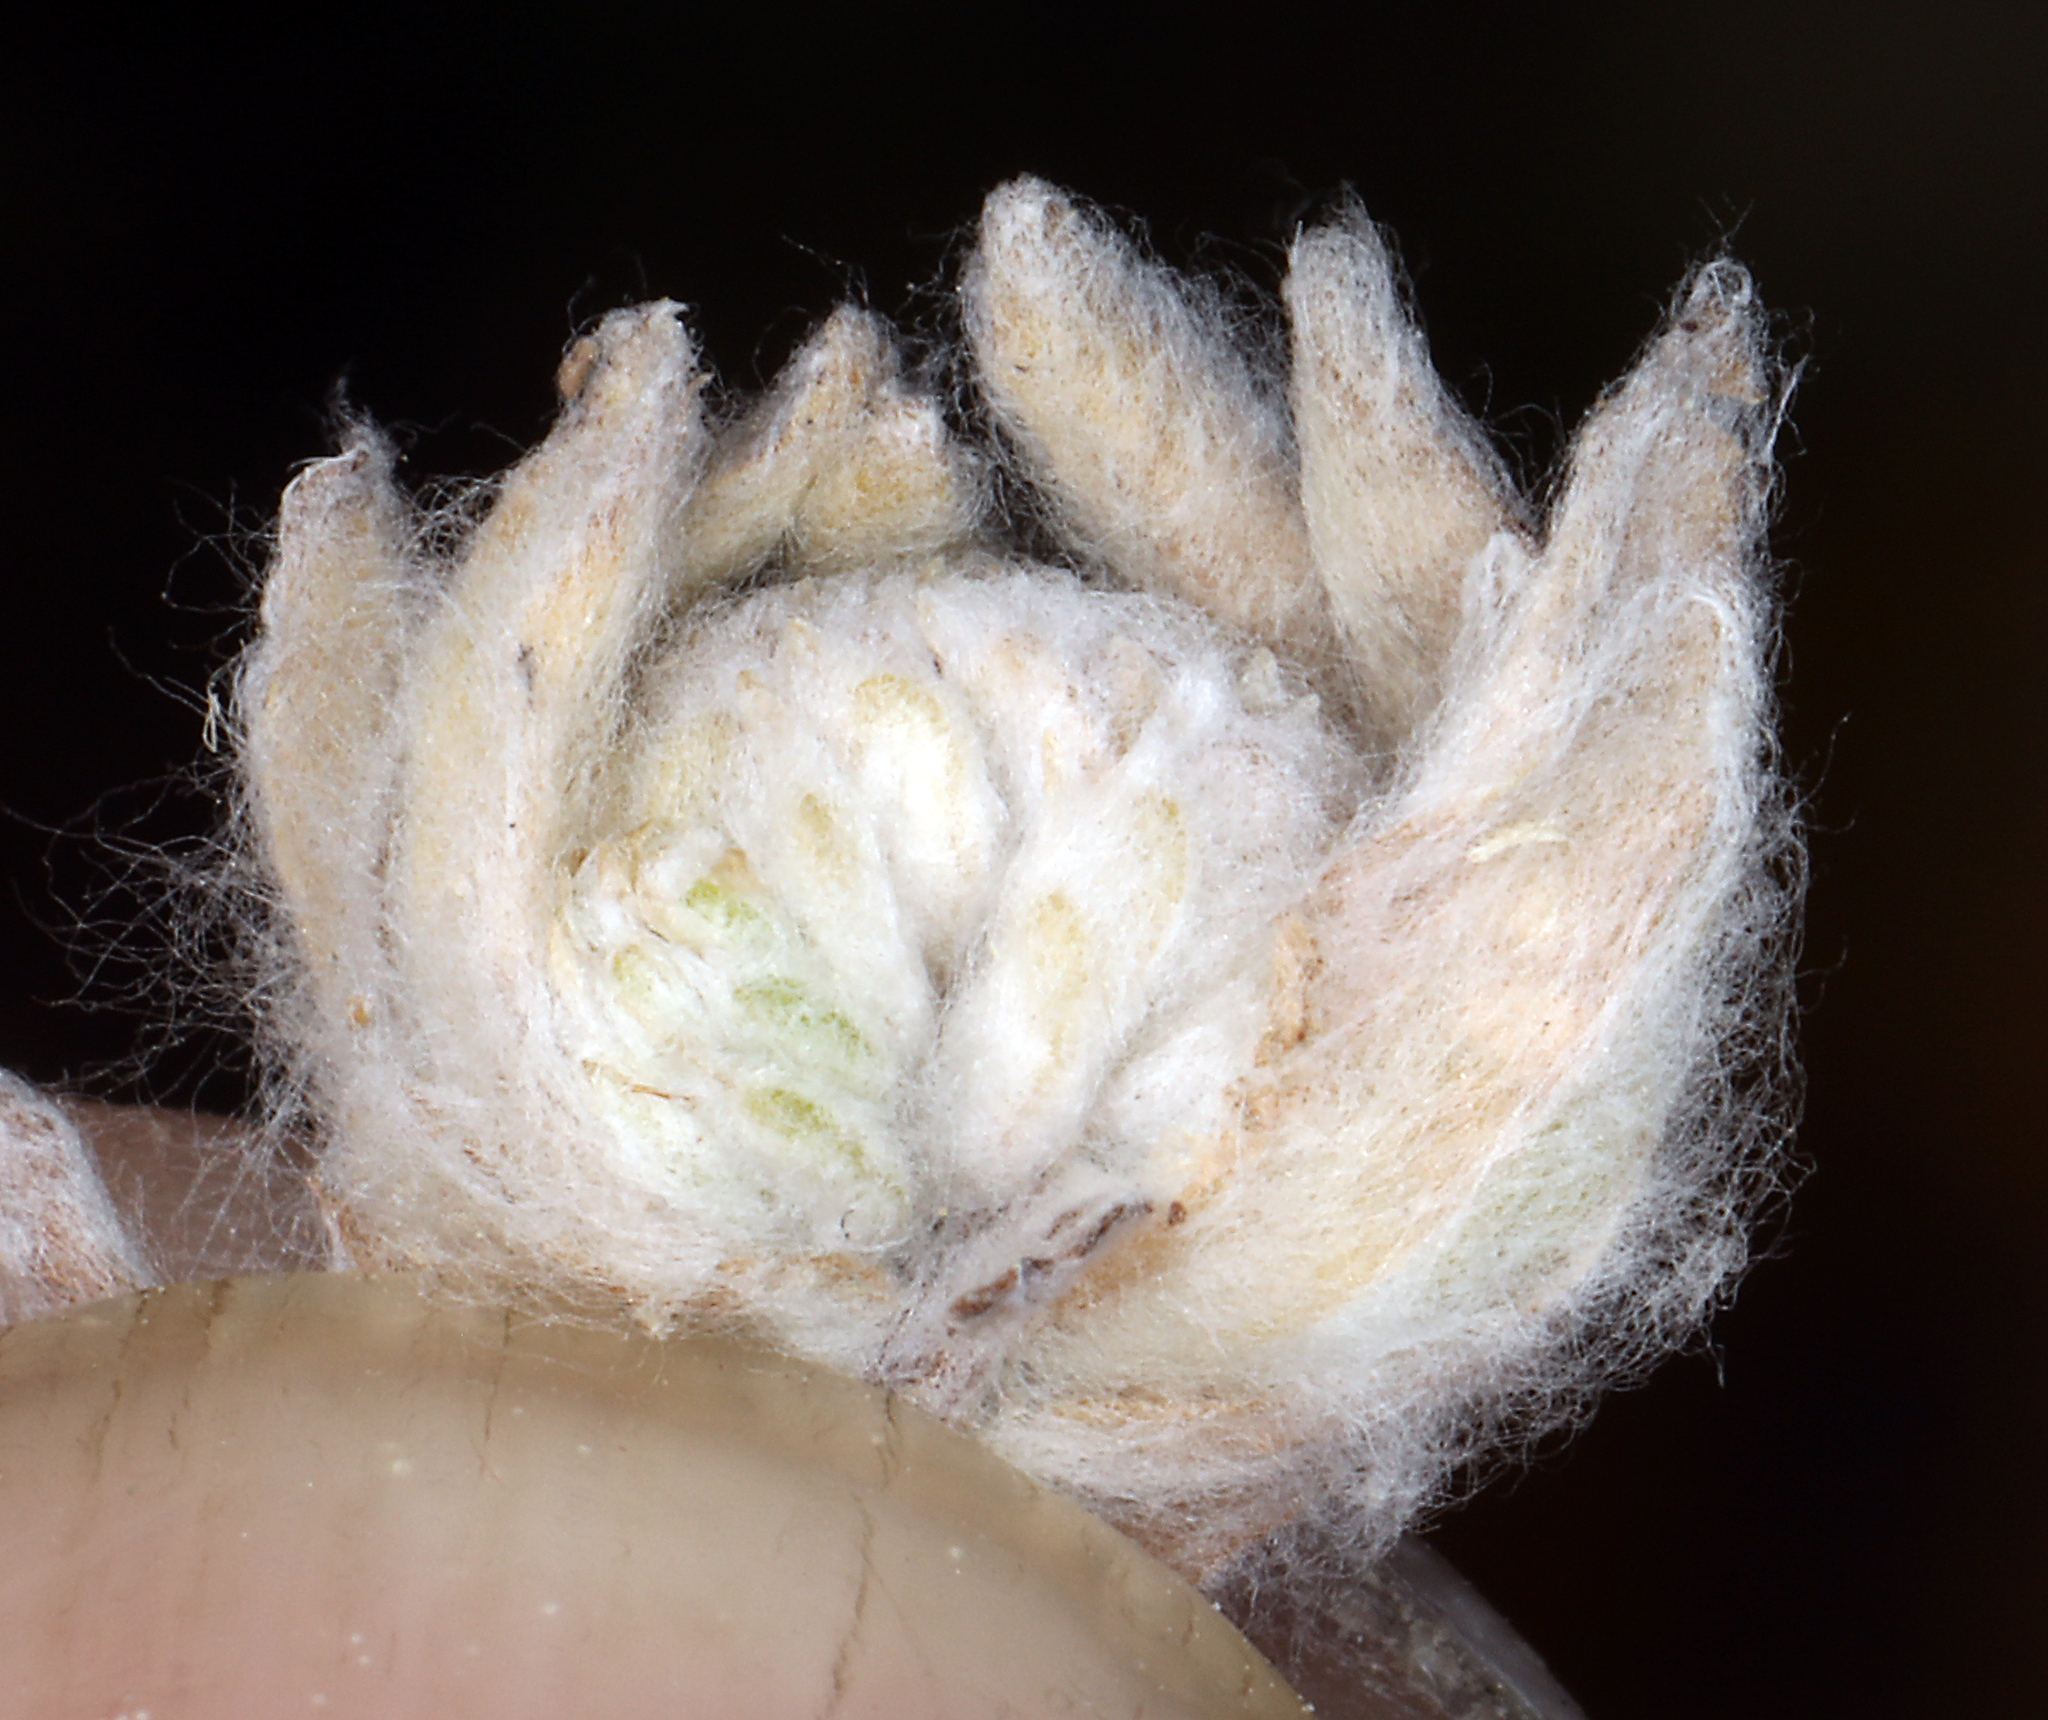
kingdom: Plantae
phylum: Tracheophyta
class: Magnoliopsida
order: Asterales
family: Asteraceae
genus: Psilocarphus
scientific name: Psilocarphus brevissimus
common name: Dwarf woollyheads
